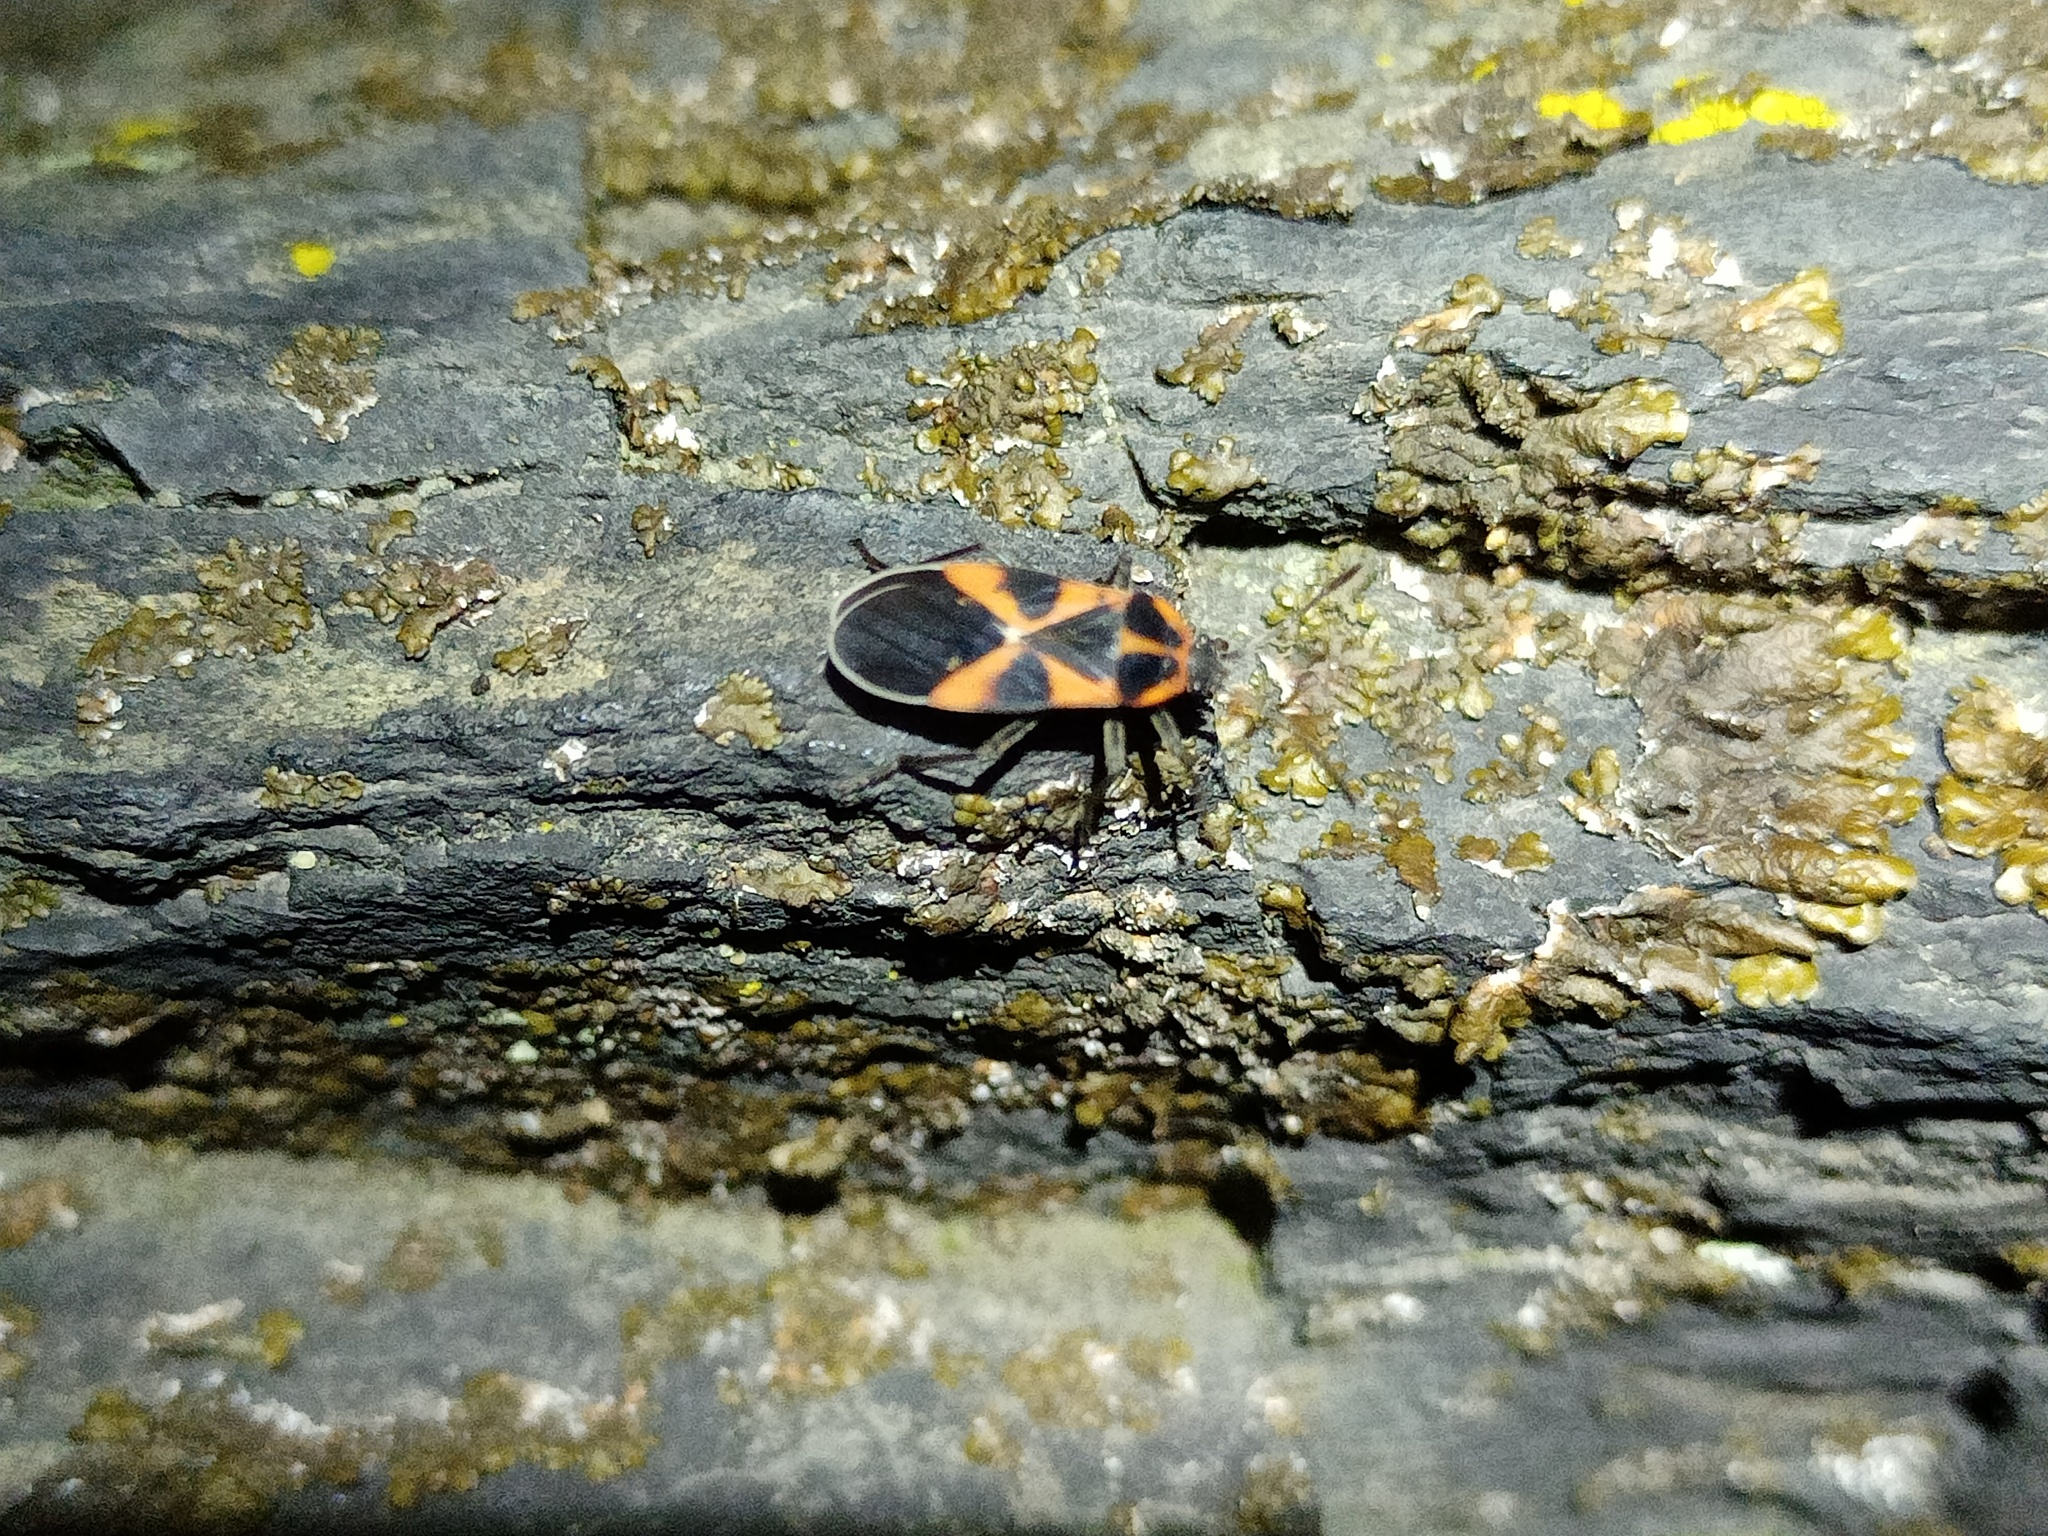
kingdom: Animalia
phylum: Arthropoda
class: Insecta
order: Hemiptera
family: Lygaeidae
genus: Tropidothorax
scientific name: Tropidothorax leucopterus
